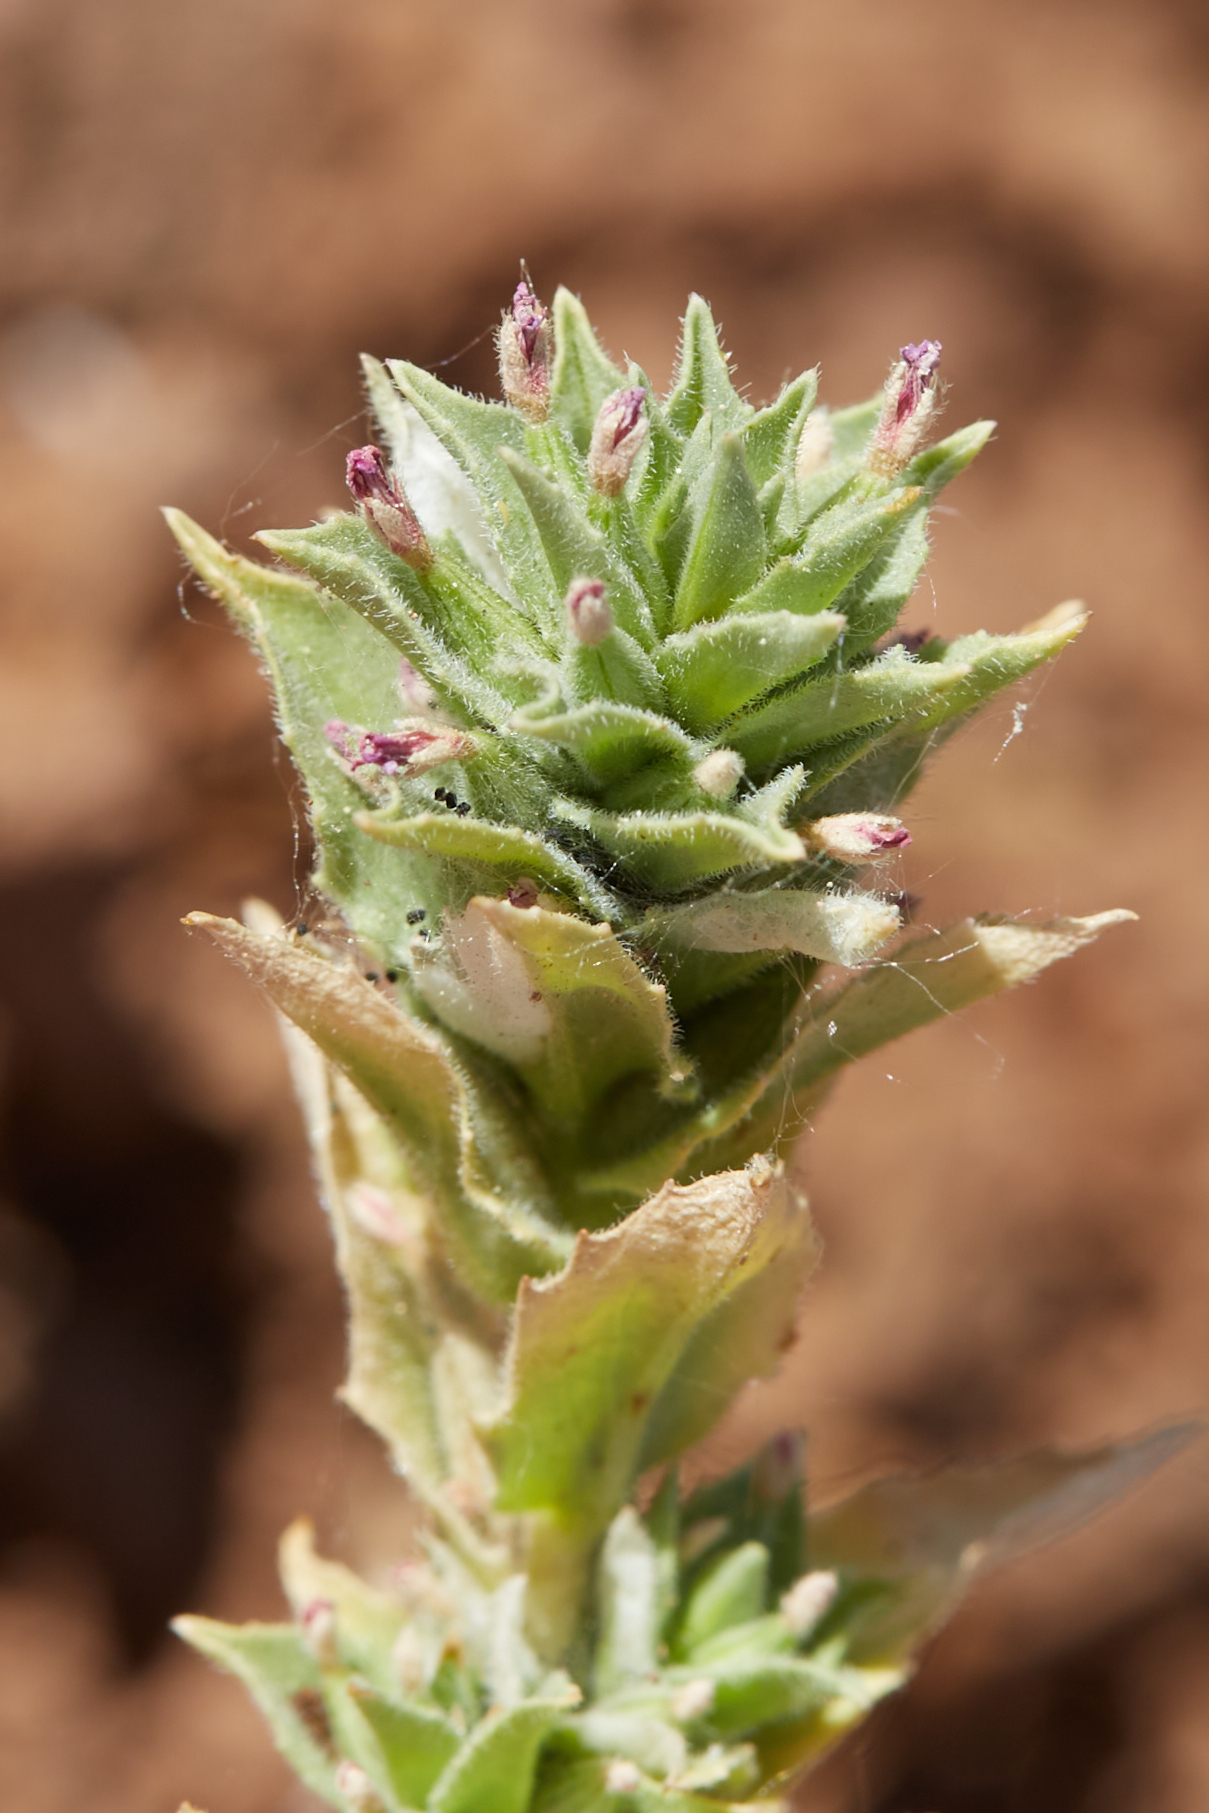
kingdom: Plantae
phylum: Tracheophyta
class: Magnoliopsida
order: Myrtales
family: Onagraceae
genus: Epilobium
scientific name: Epilobium densiflorum
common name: Dense spike-primrose
